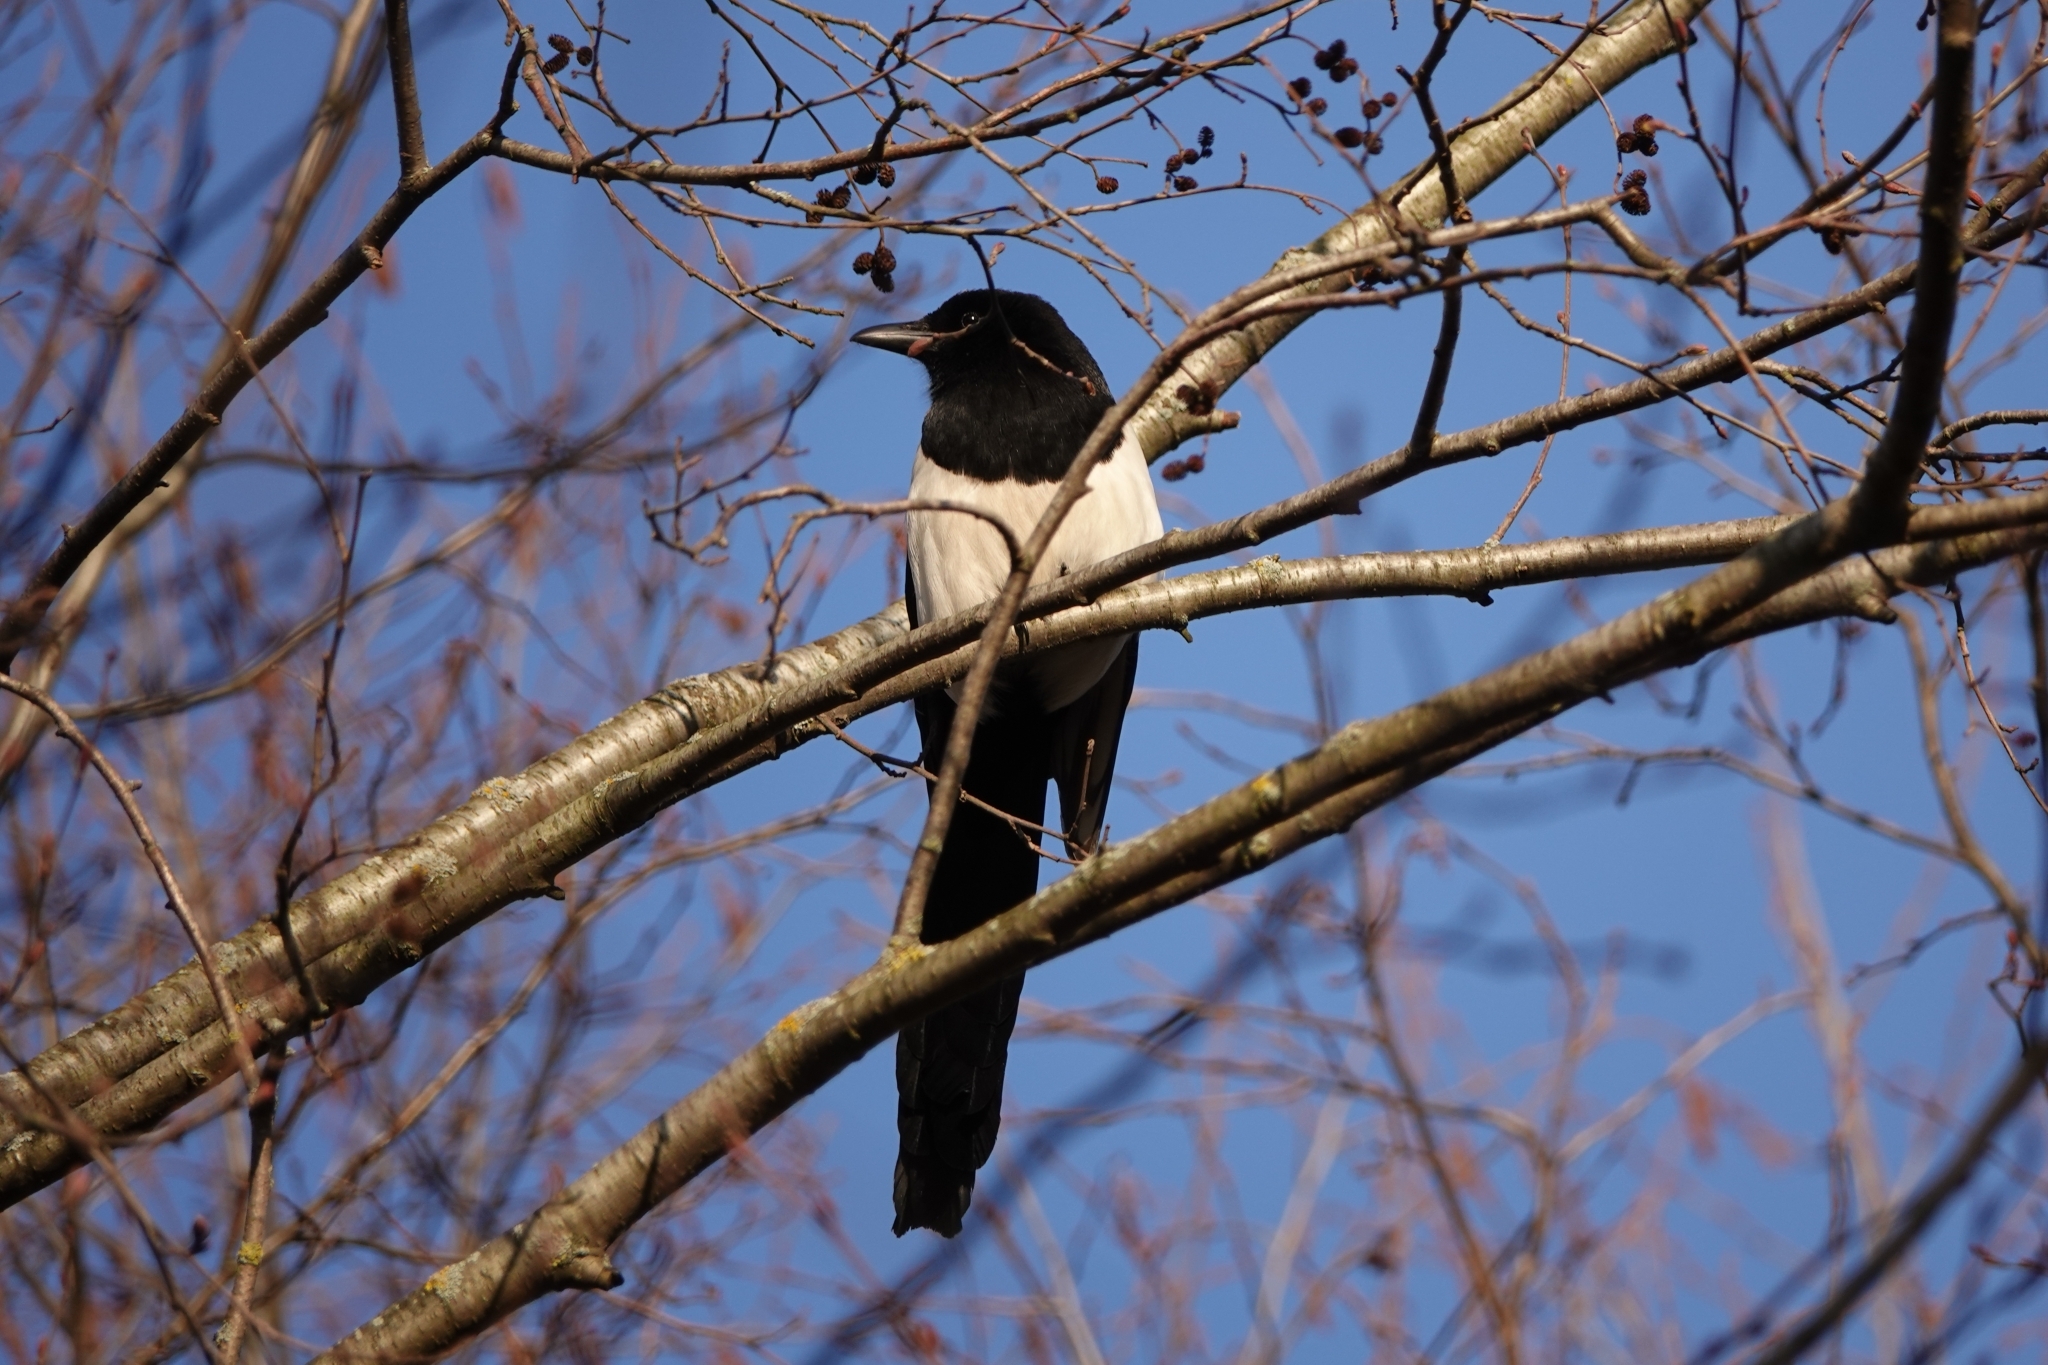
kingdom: Animalia
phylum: Chordata
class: Aves
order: Passeriformes
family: Corvidae
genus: Pica
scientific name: Pica pica
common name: Eurasian magpie
